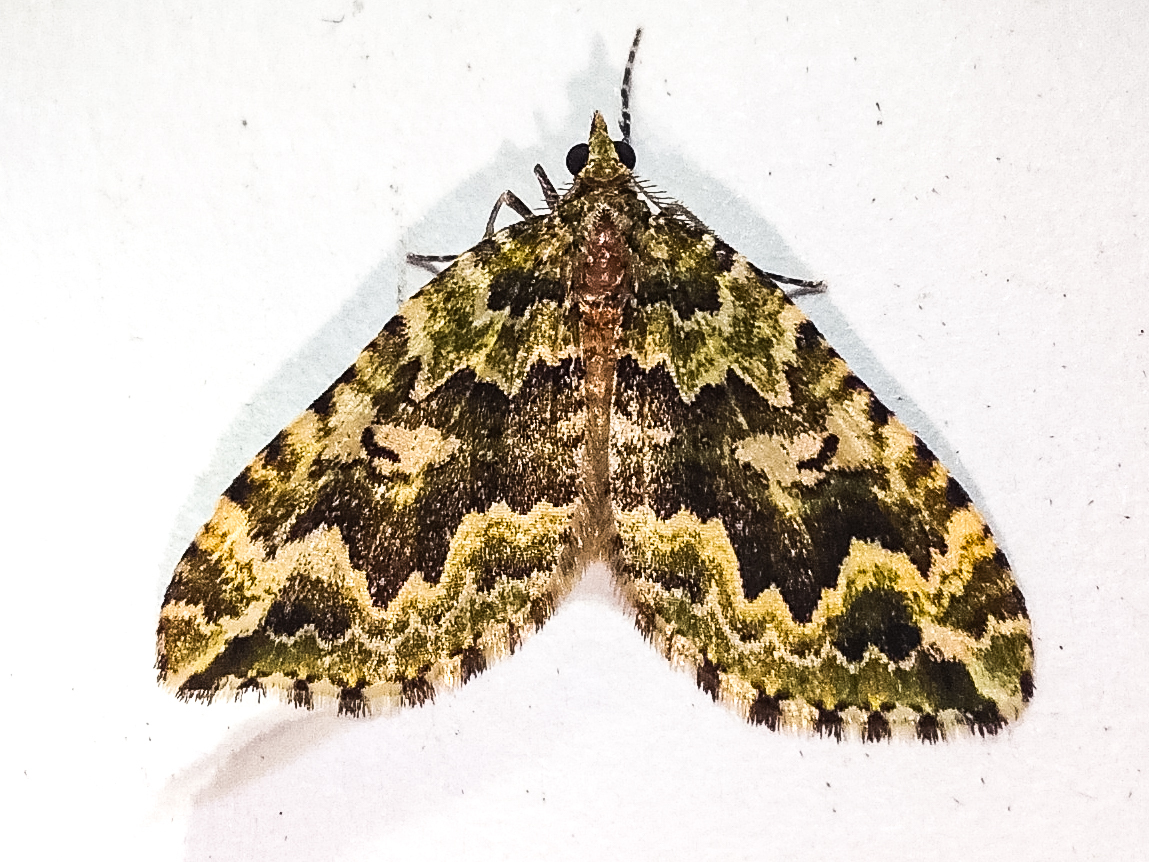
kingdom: Animalia
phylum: Arthropoda
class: Insecta
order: Lepidoptera
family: Geometridae
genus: Asaphodes
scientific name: Asaphodes beata
